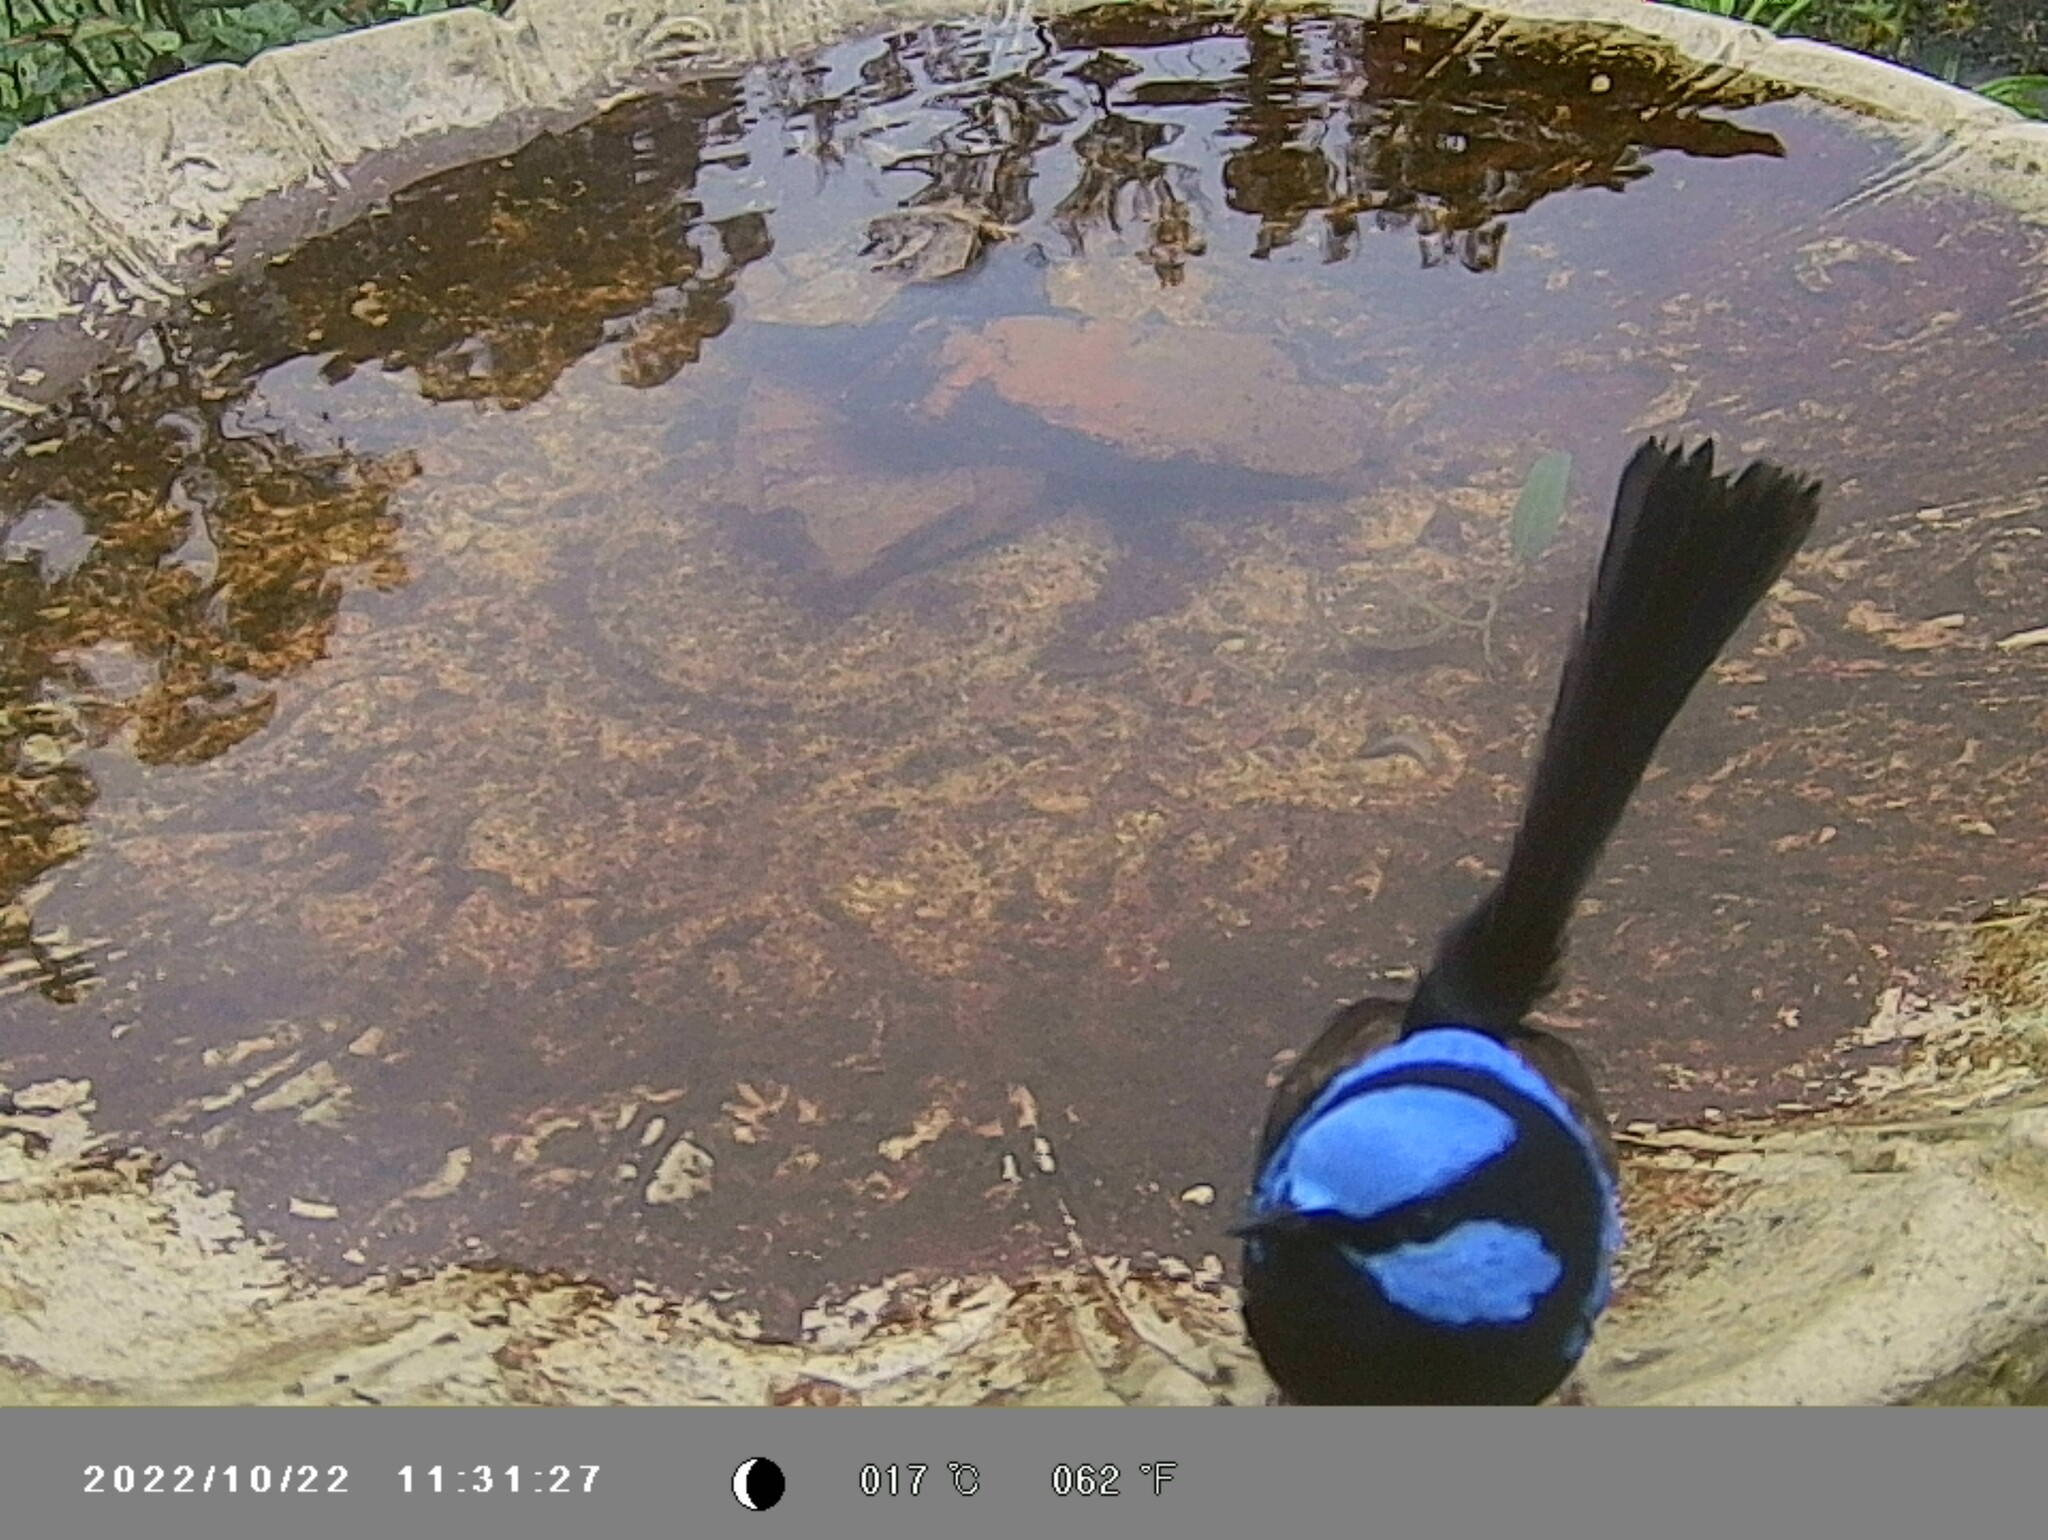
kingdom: Animalia
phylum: Chordata
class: Aves
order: Passeriformes
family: Maluridae
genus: Malurus
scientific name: Malurus cyaneus
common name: Superb fairywren
